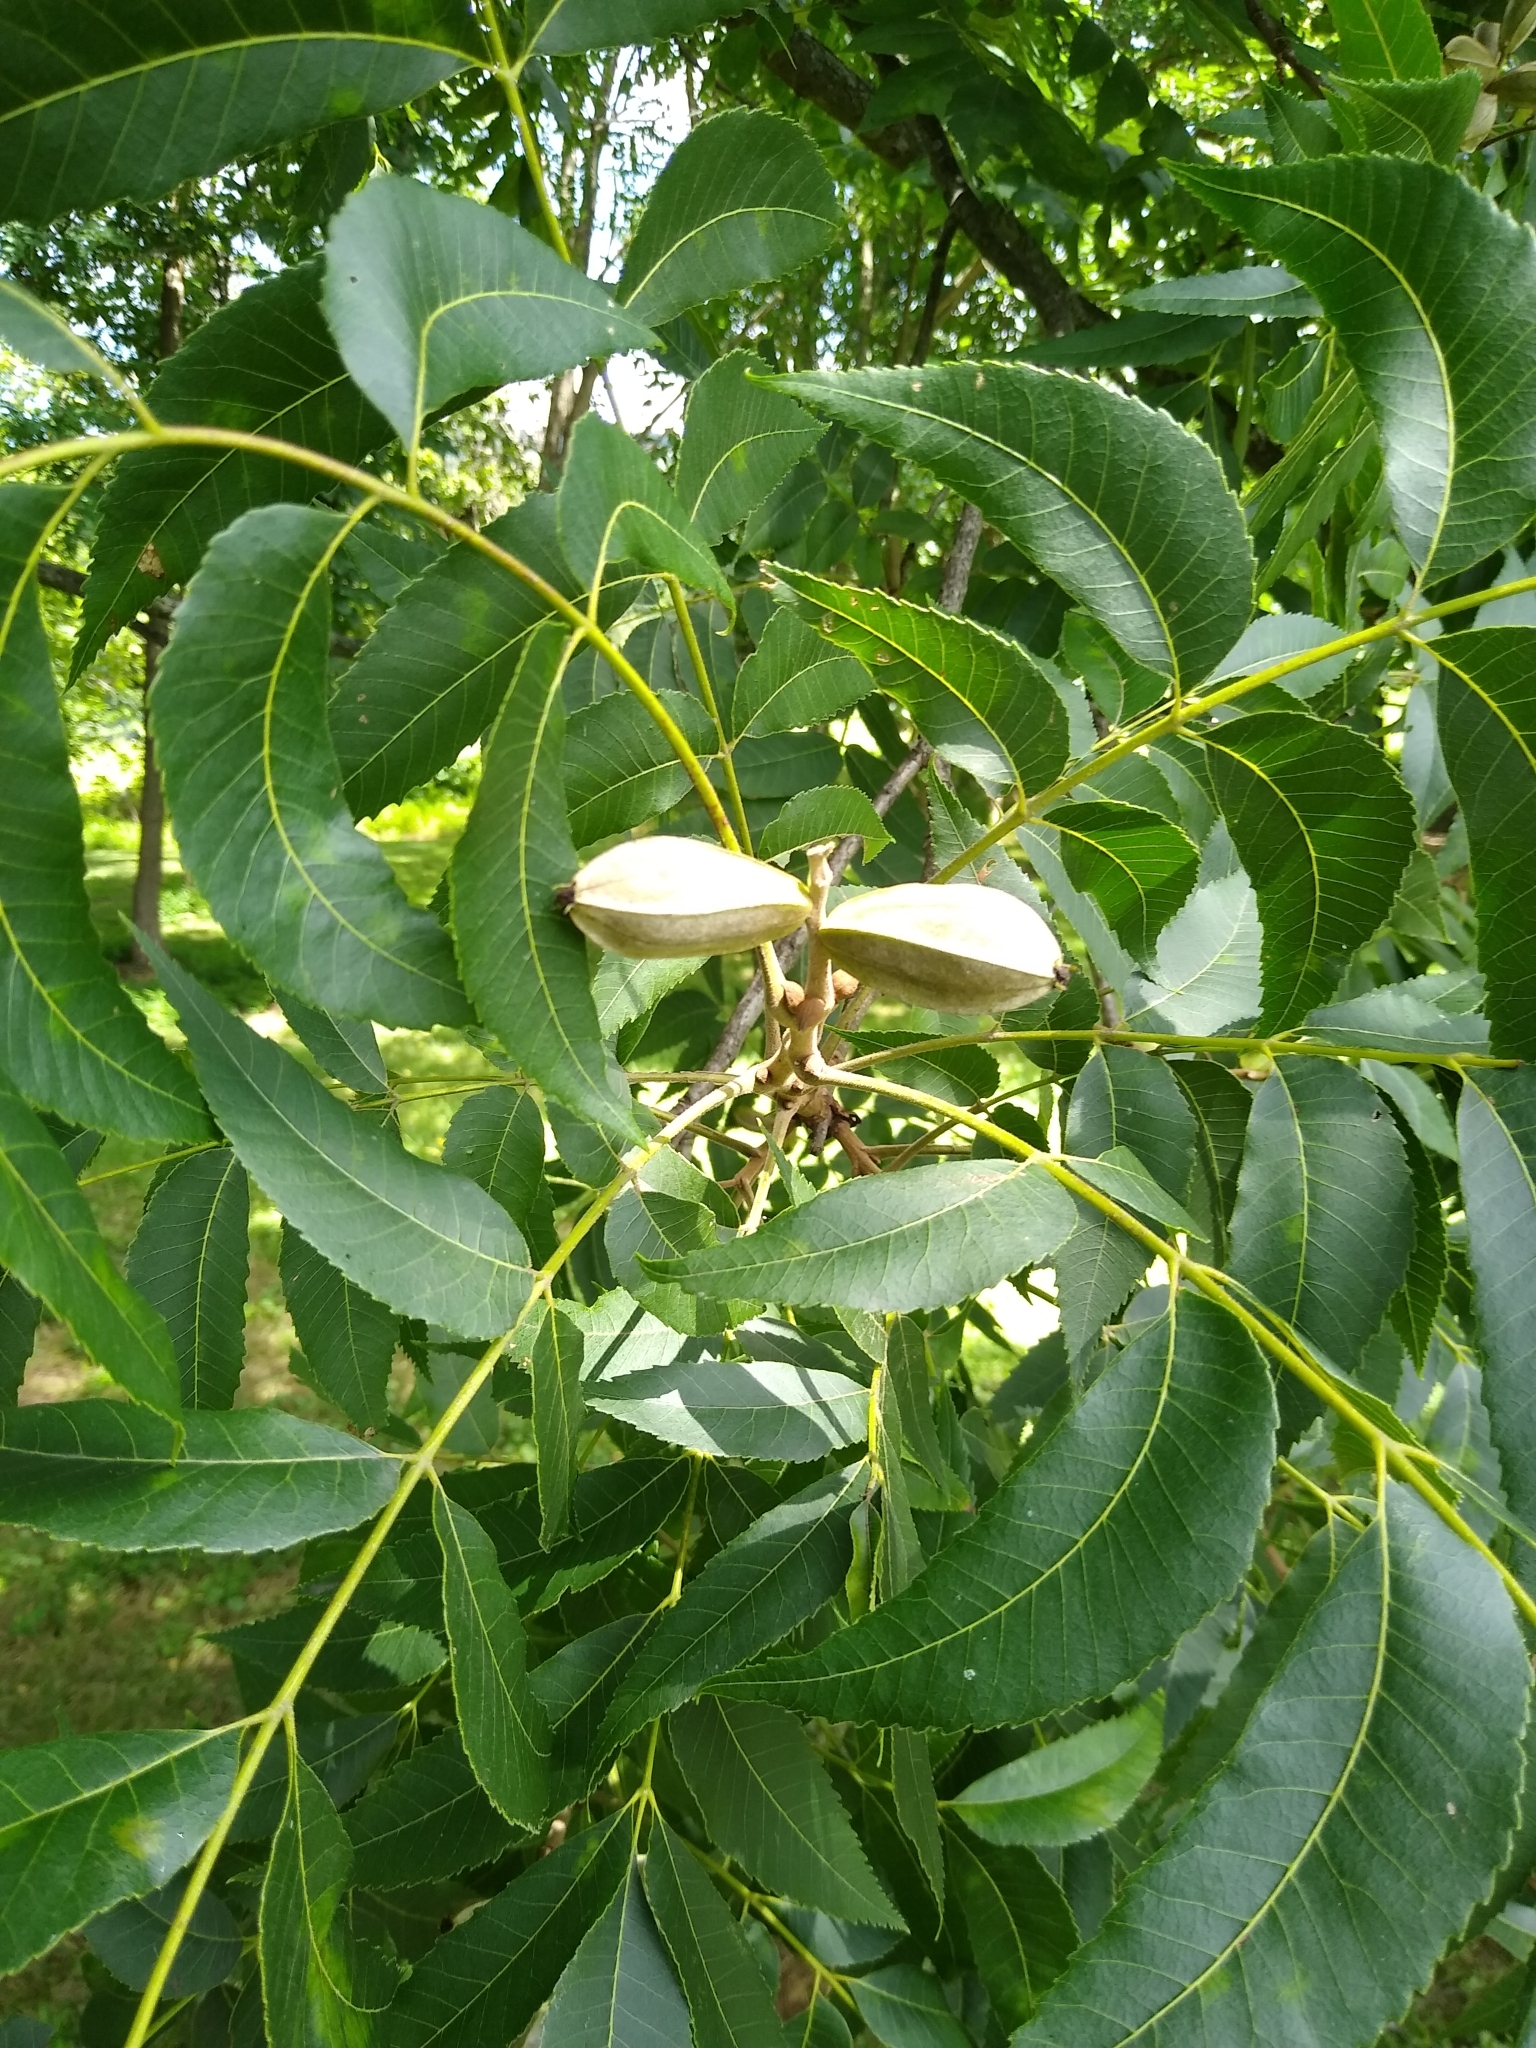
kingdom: Plantae
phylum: Tracheophyta
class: Magnoliopsida
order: Fagales
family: Juglandaceae
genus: Carya
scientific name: Carya illinoinensis
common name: Pecan
